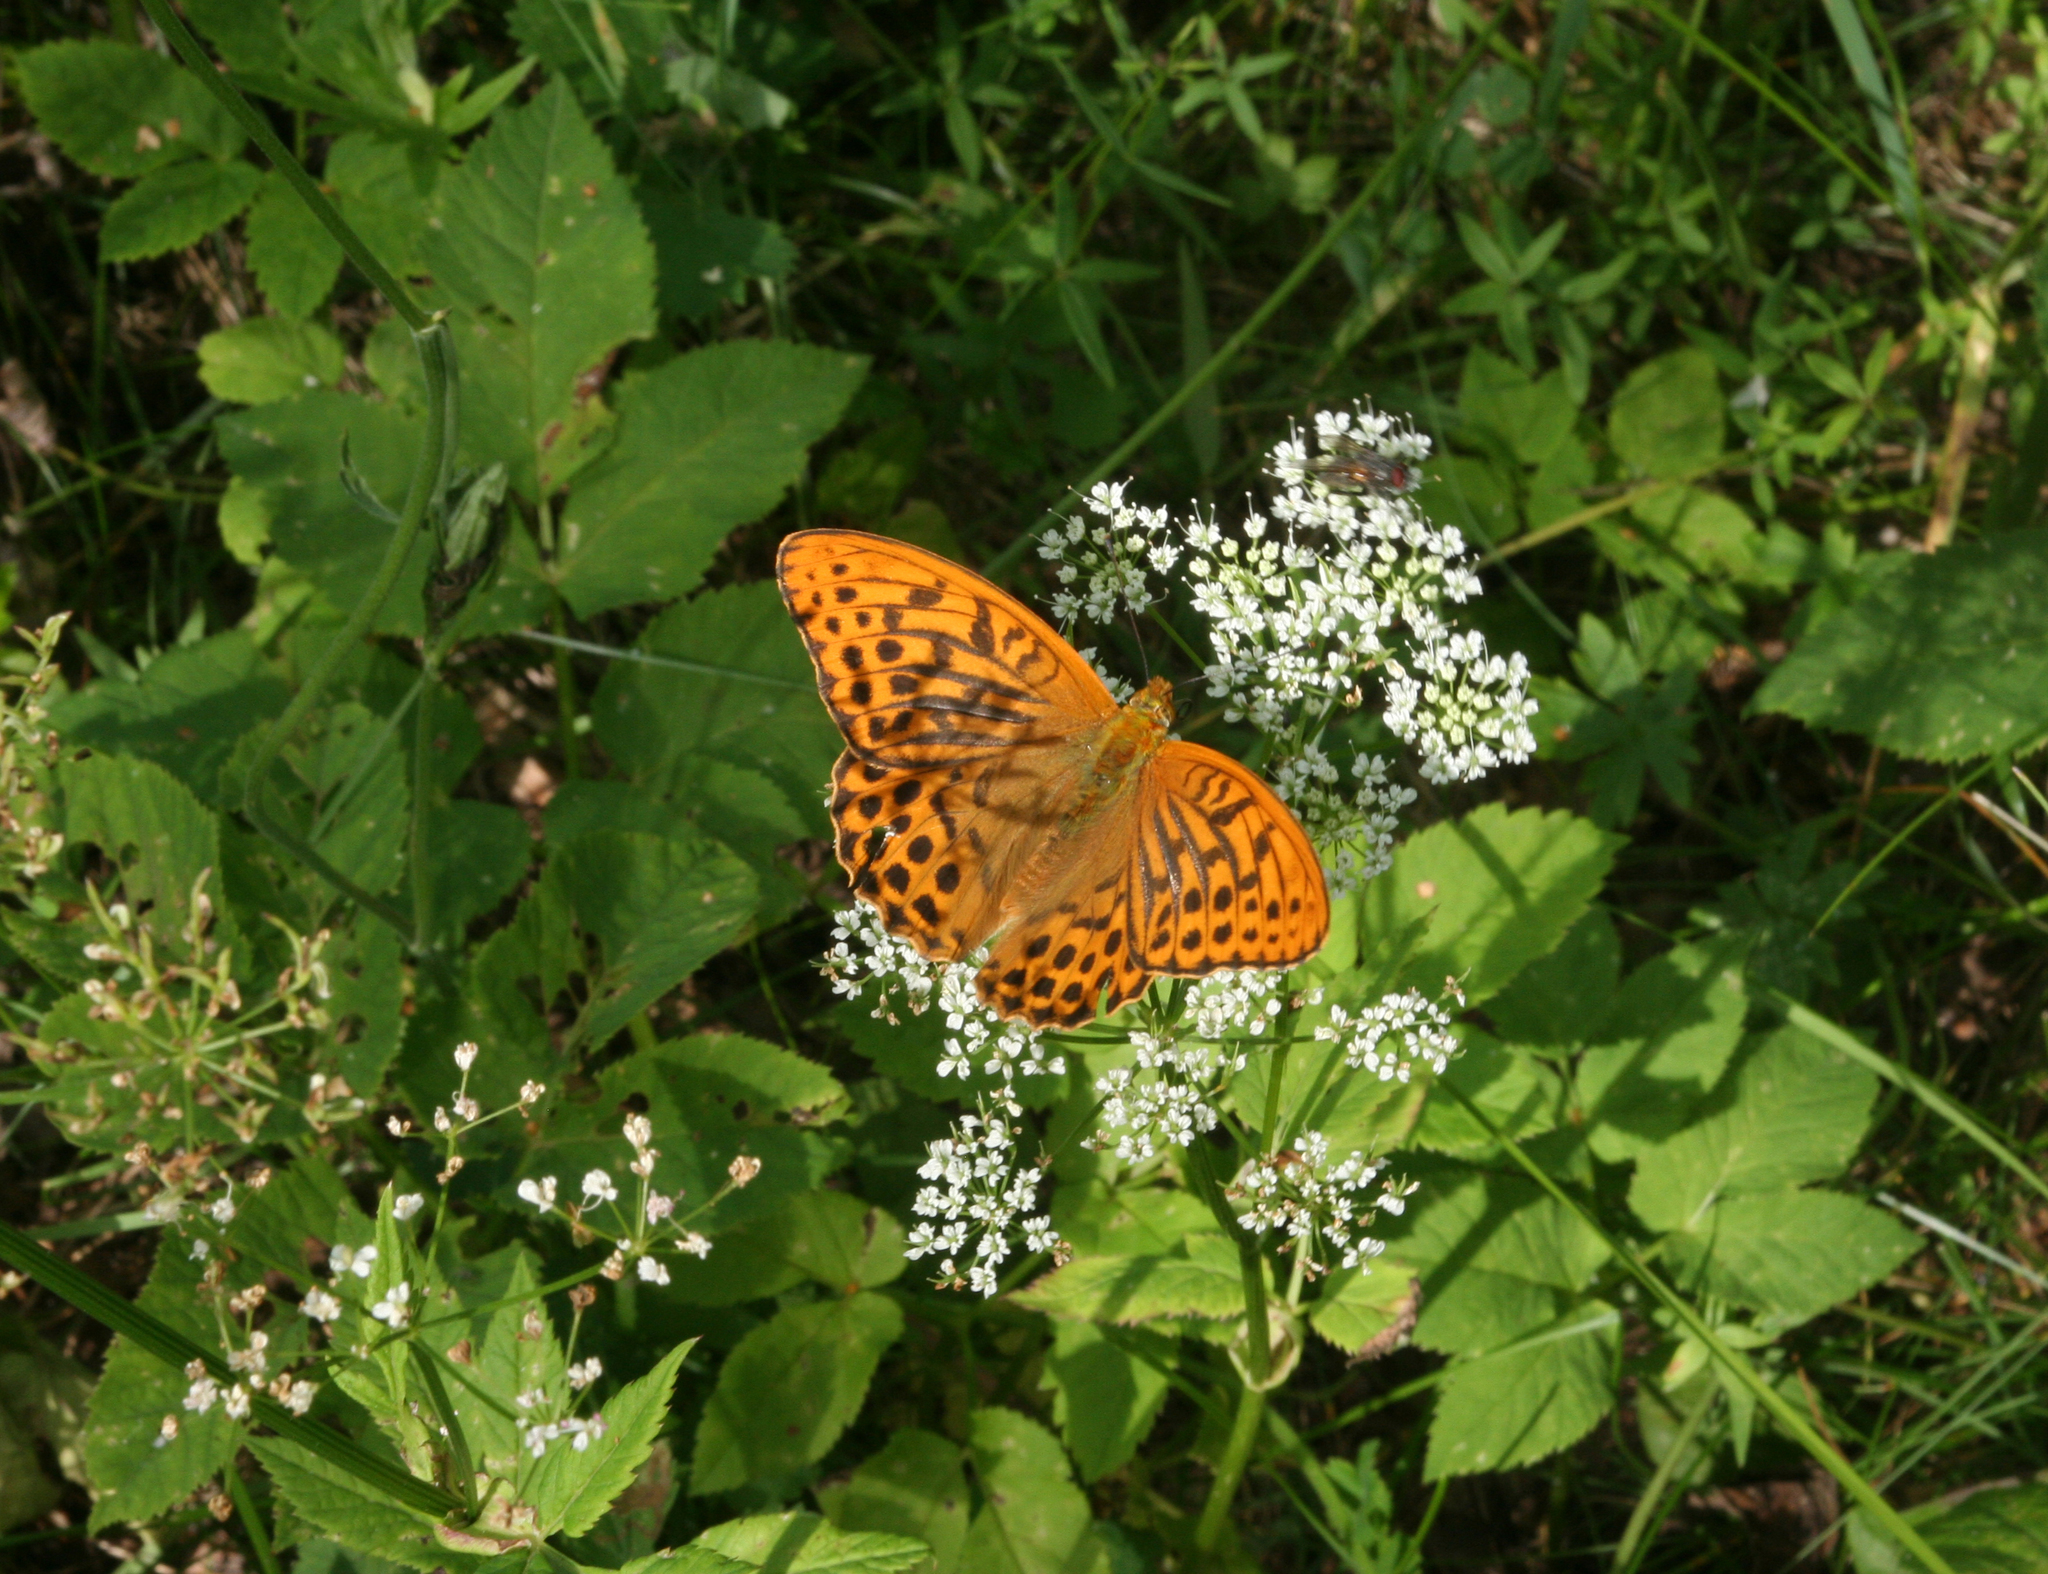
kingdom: Animalia
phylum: Arthropoda
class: Insecta
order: Lepidoptera
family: Nymphalidae
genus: Argynnis
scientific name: Argynnis paphia
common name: Silver-washed fritillary
